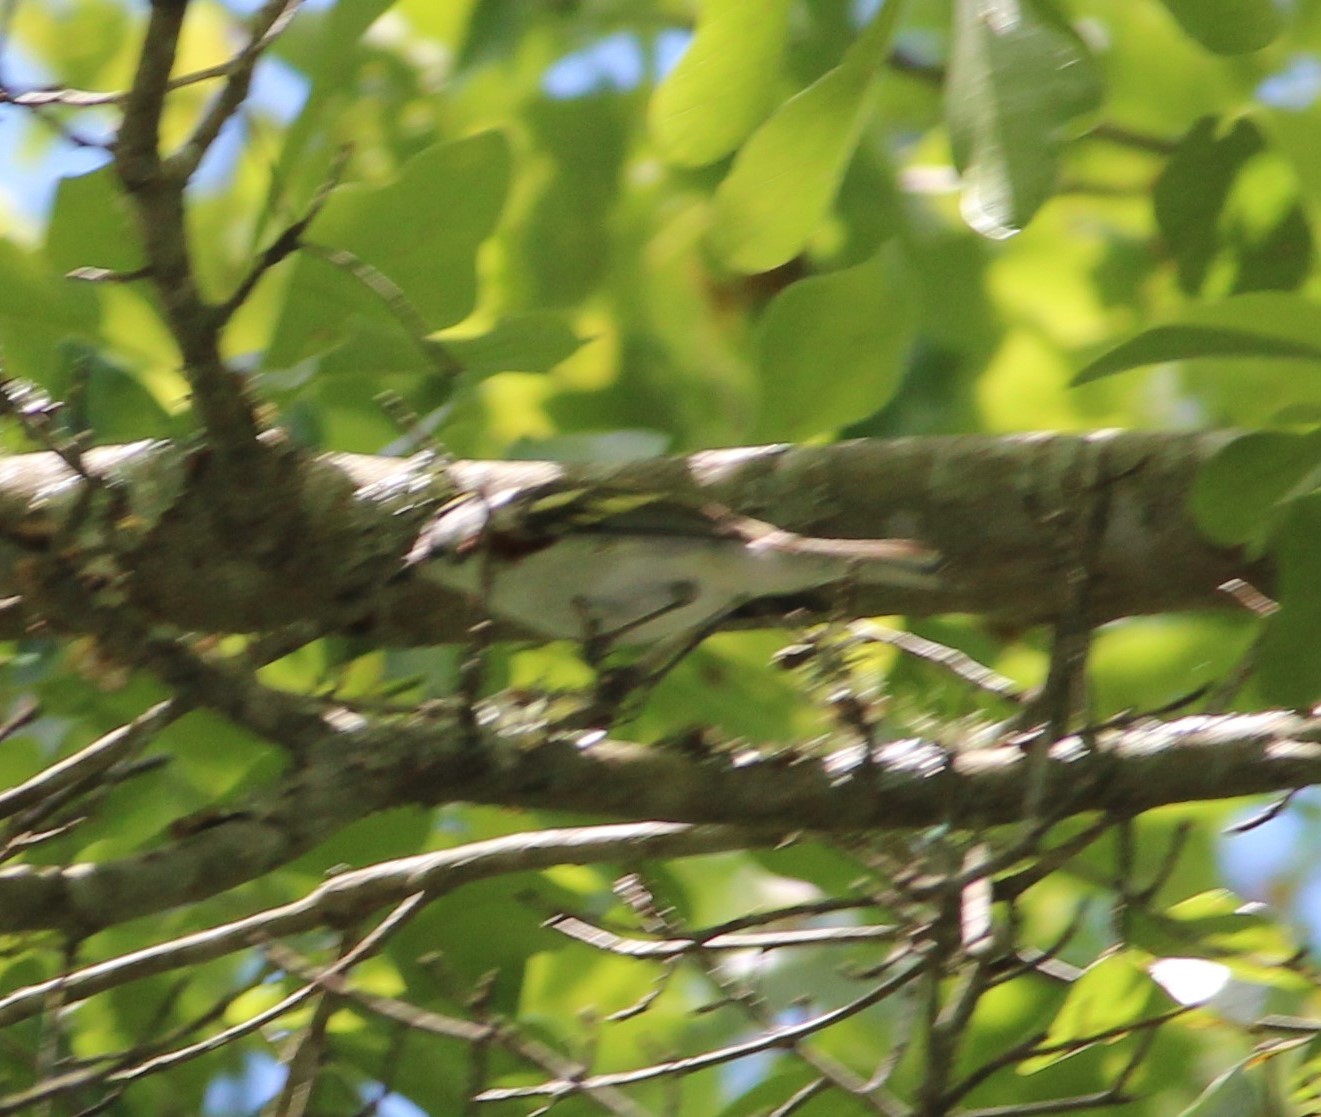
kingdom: Animalia
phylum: Chordata
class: Aves
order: Passeriformes
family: Parulidae
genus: Setophaga
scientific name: Setophaga pensylvanica
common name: Chestnut-sided warbler
